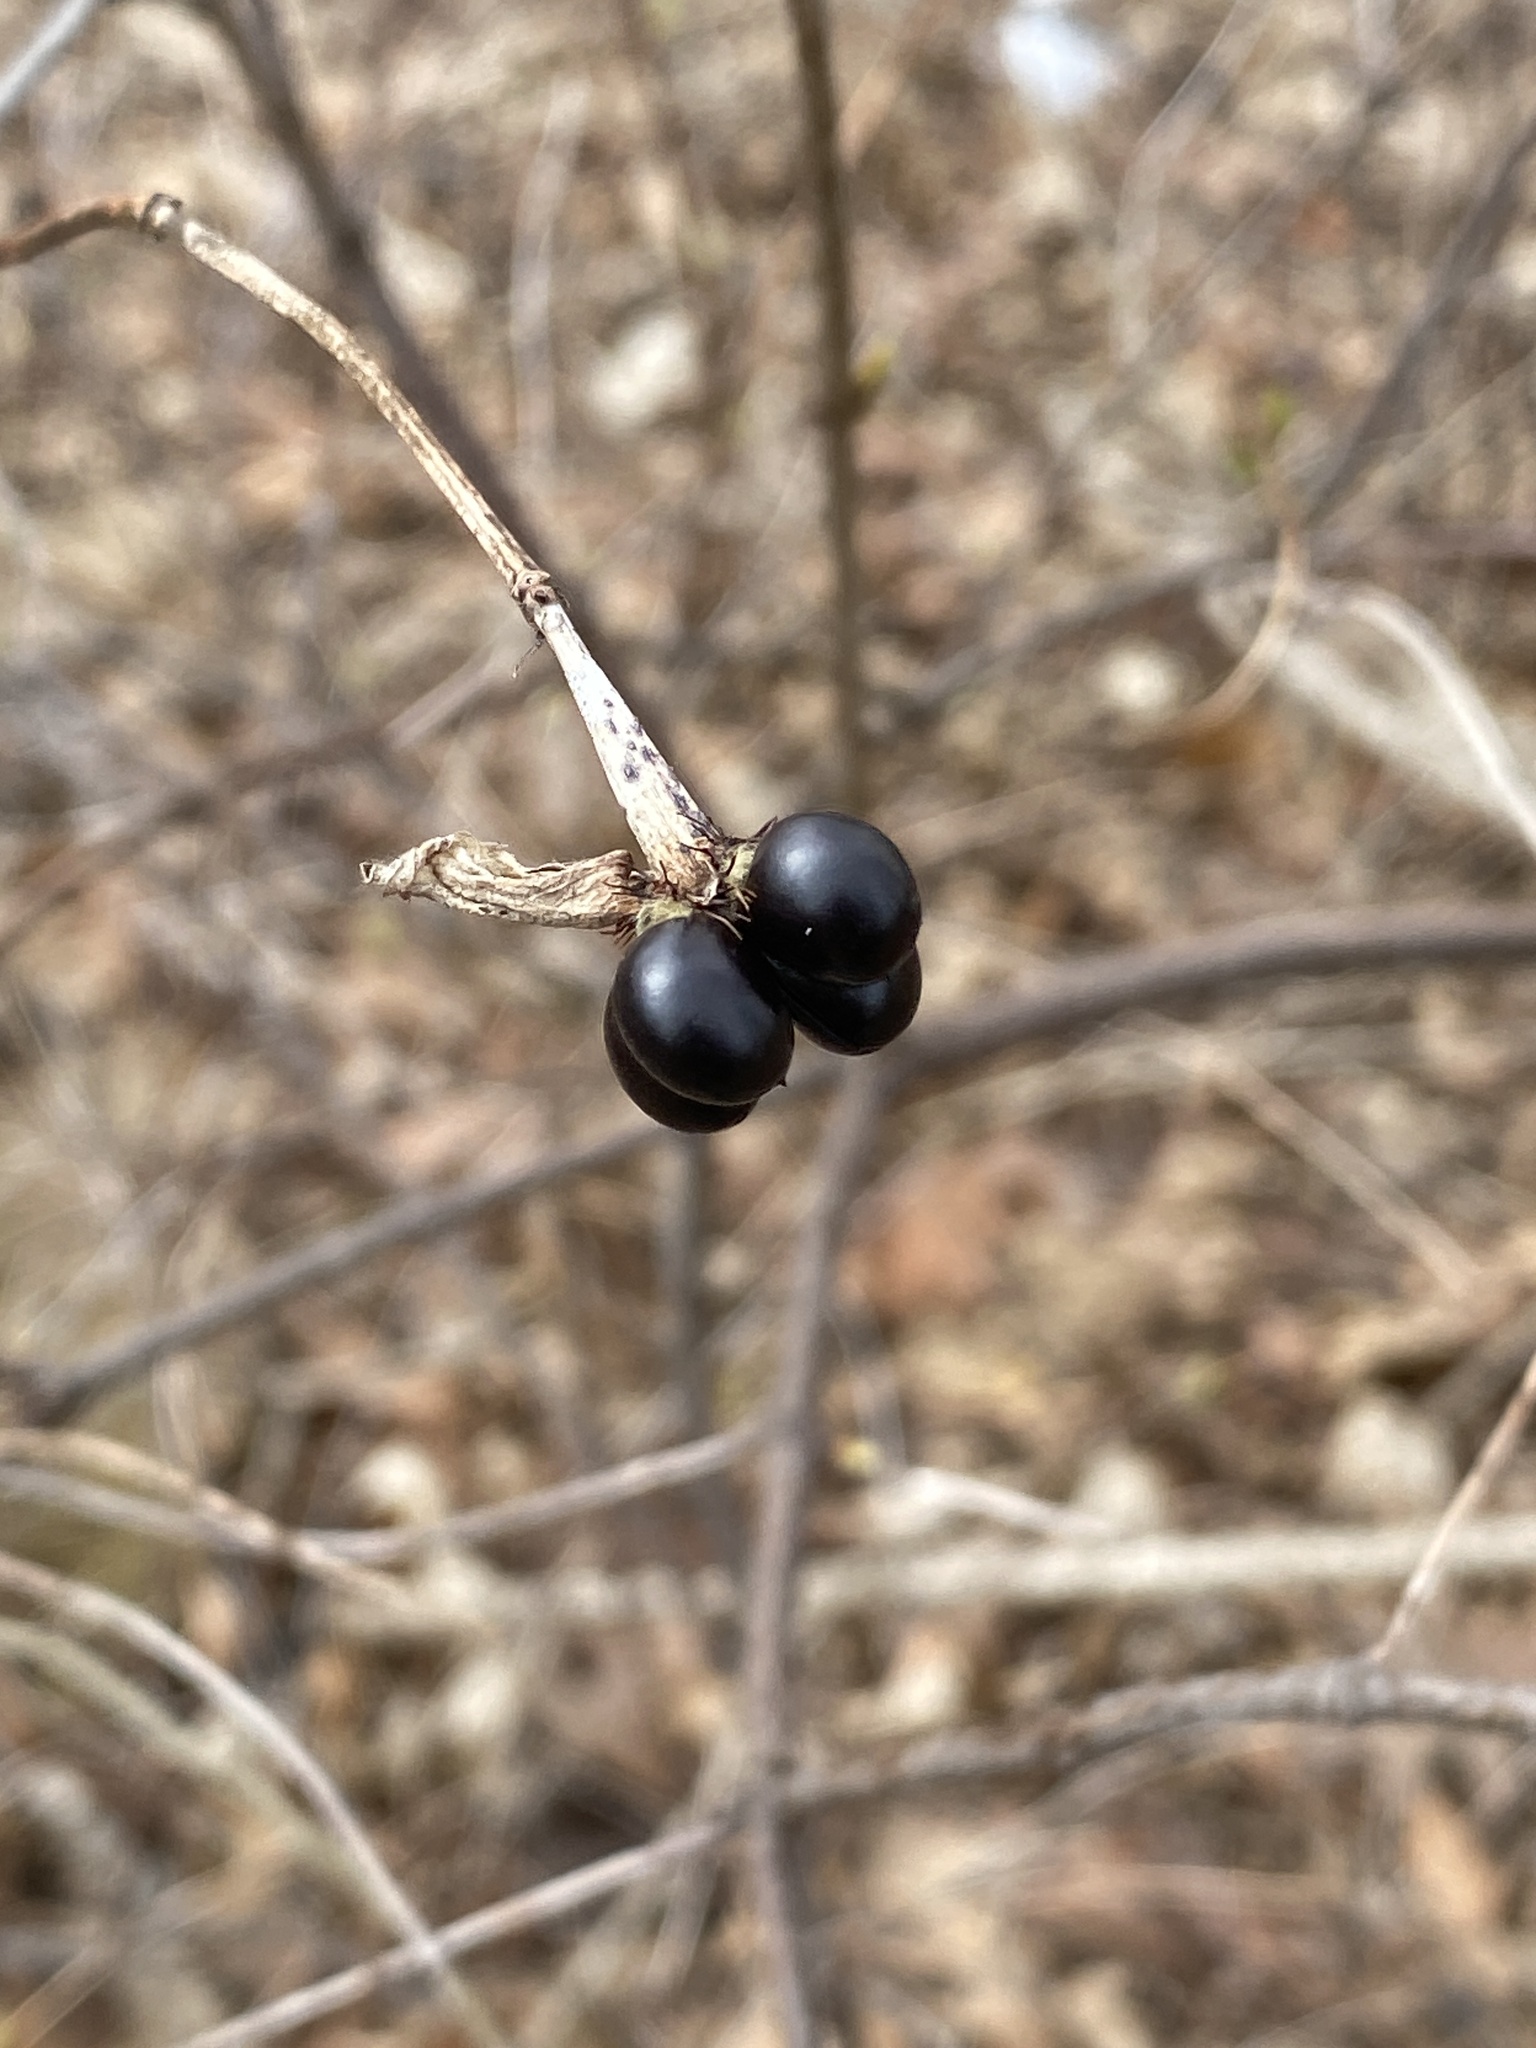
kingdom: Plantae
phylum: Tracheophyta
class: Magnoliopsida
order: Rosales
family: Rosaceae
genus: Rhodotypos
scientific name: Rhodotypos scandens
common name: Jetbead
